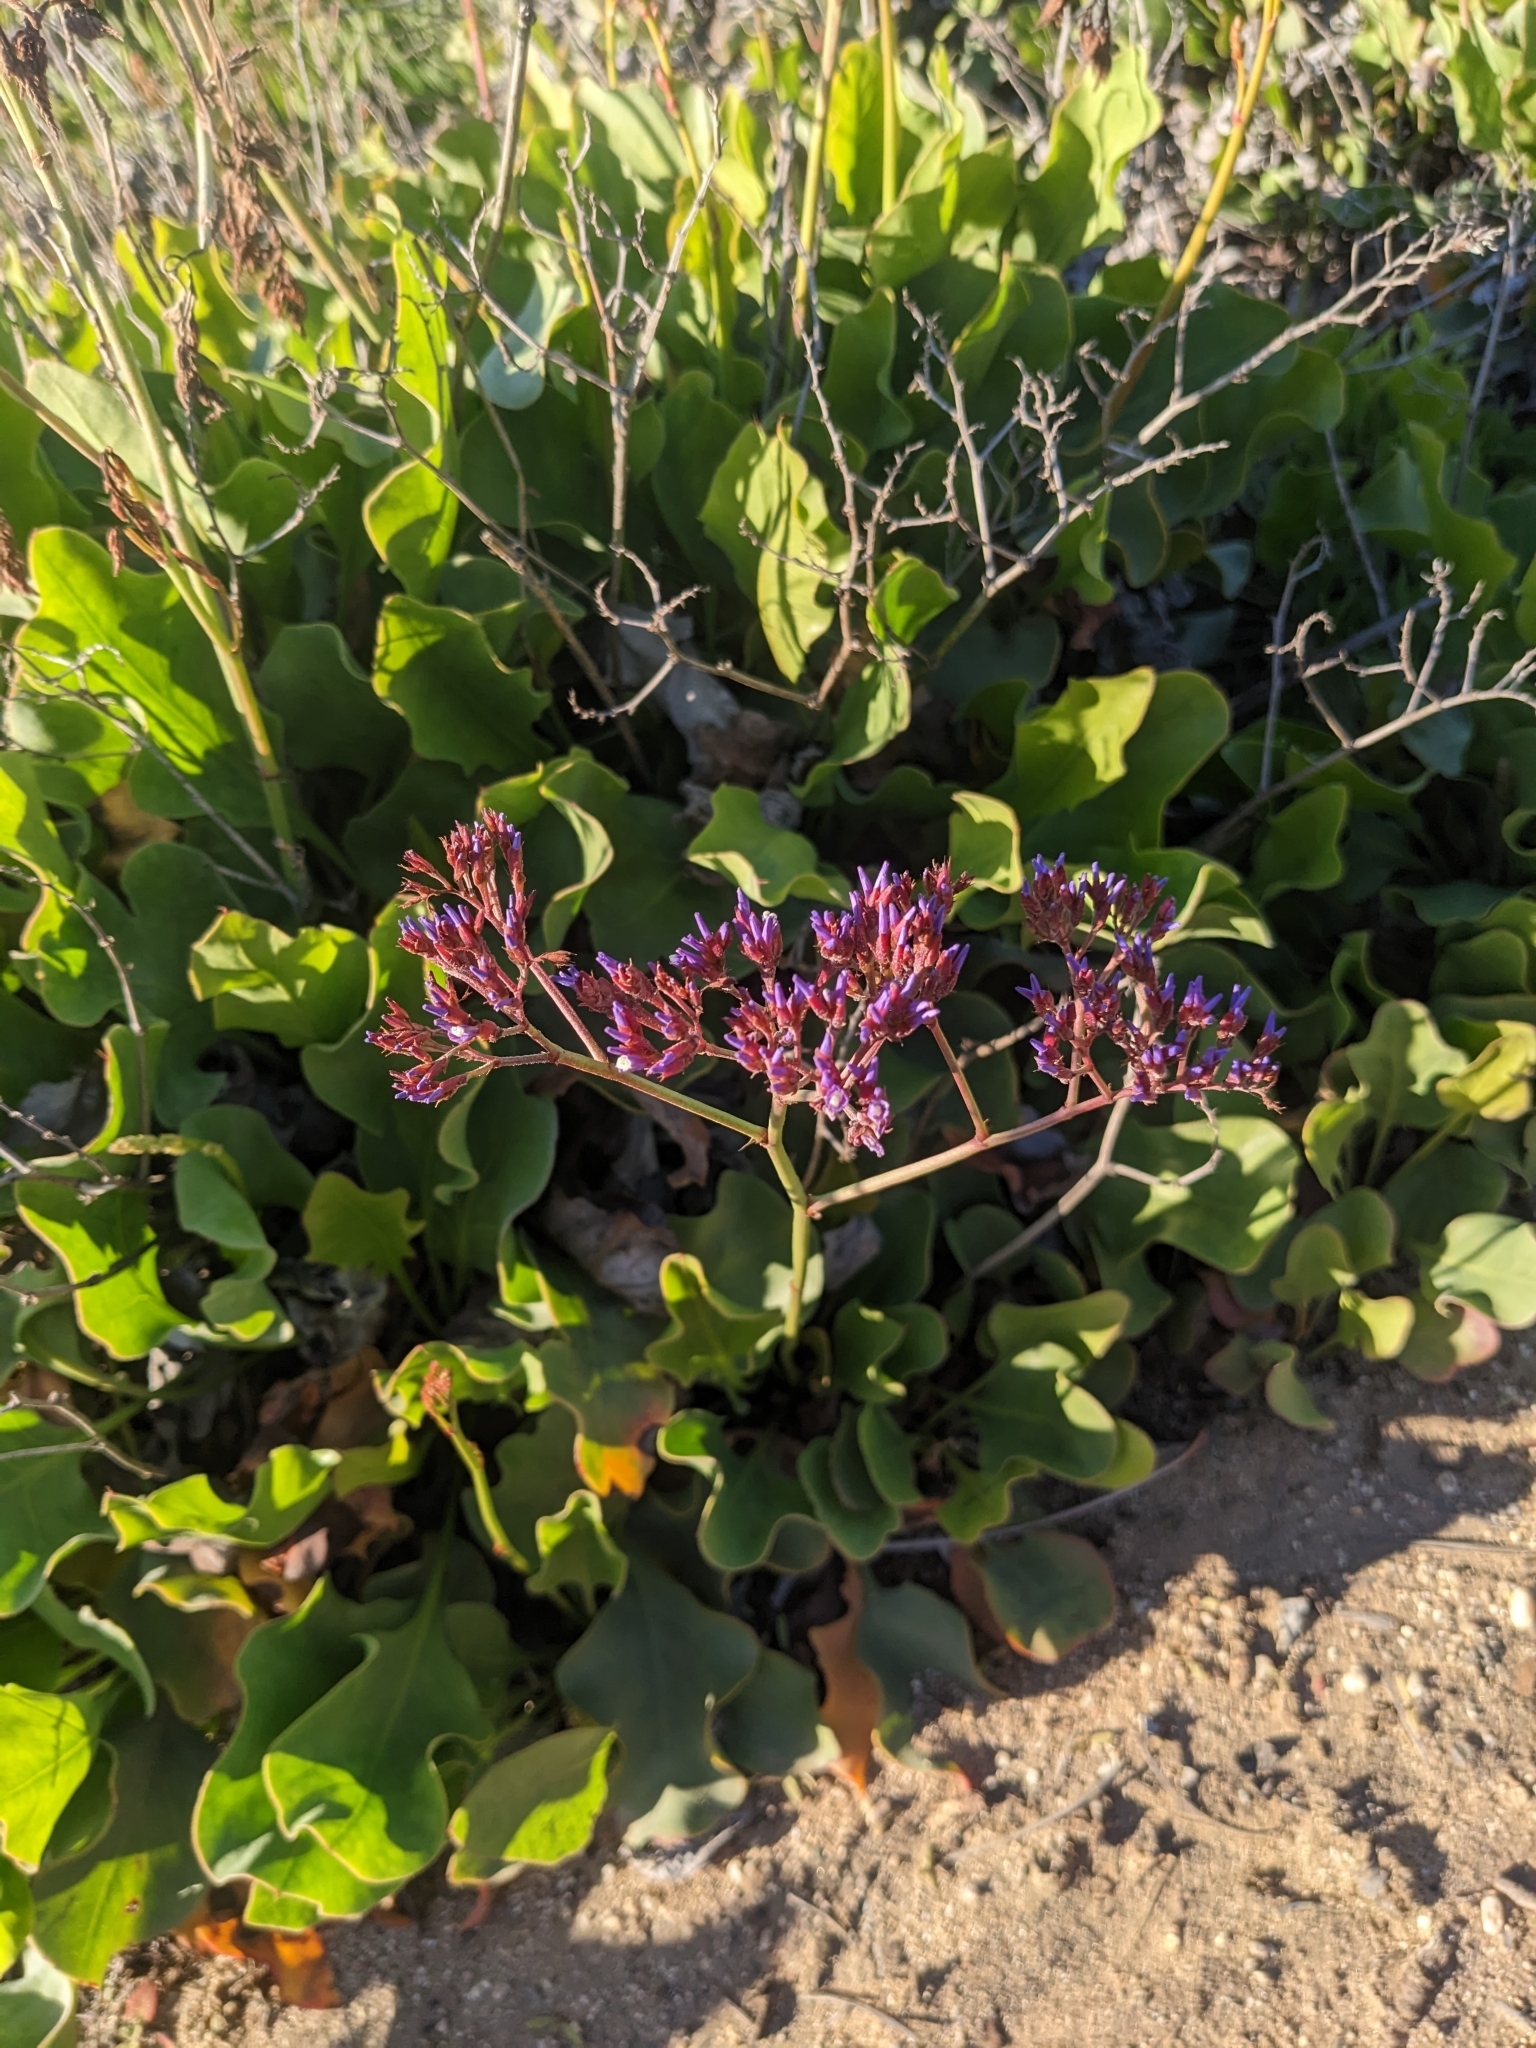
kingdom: Plantae
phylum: Tracheophyta
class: Magnoliopsida
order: Caryophyllales
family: Plumbaginaceae
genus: Limonium
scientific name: Limonium perezii
